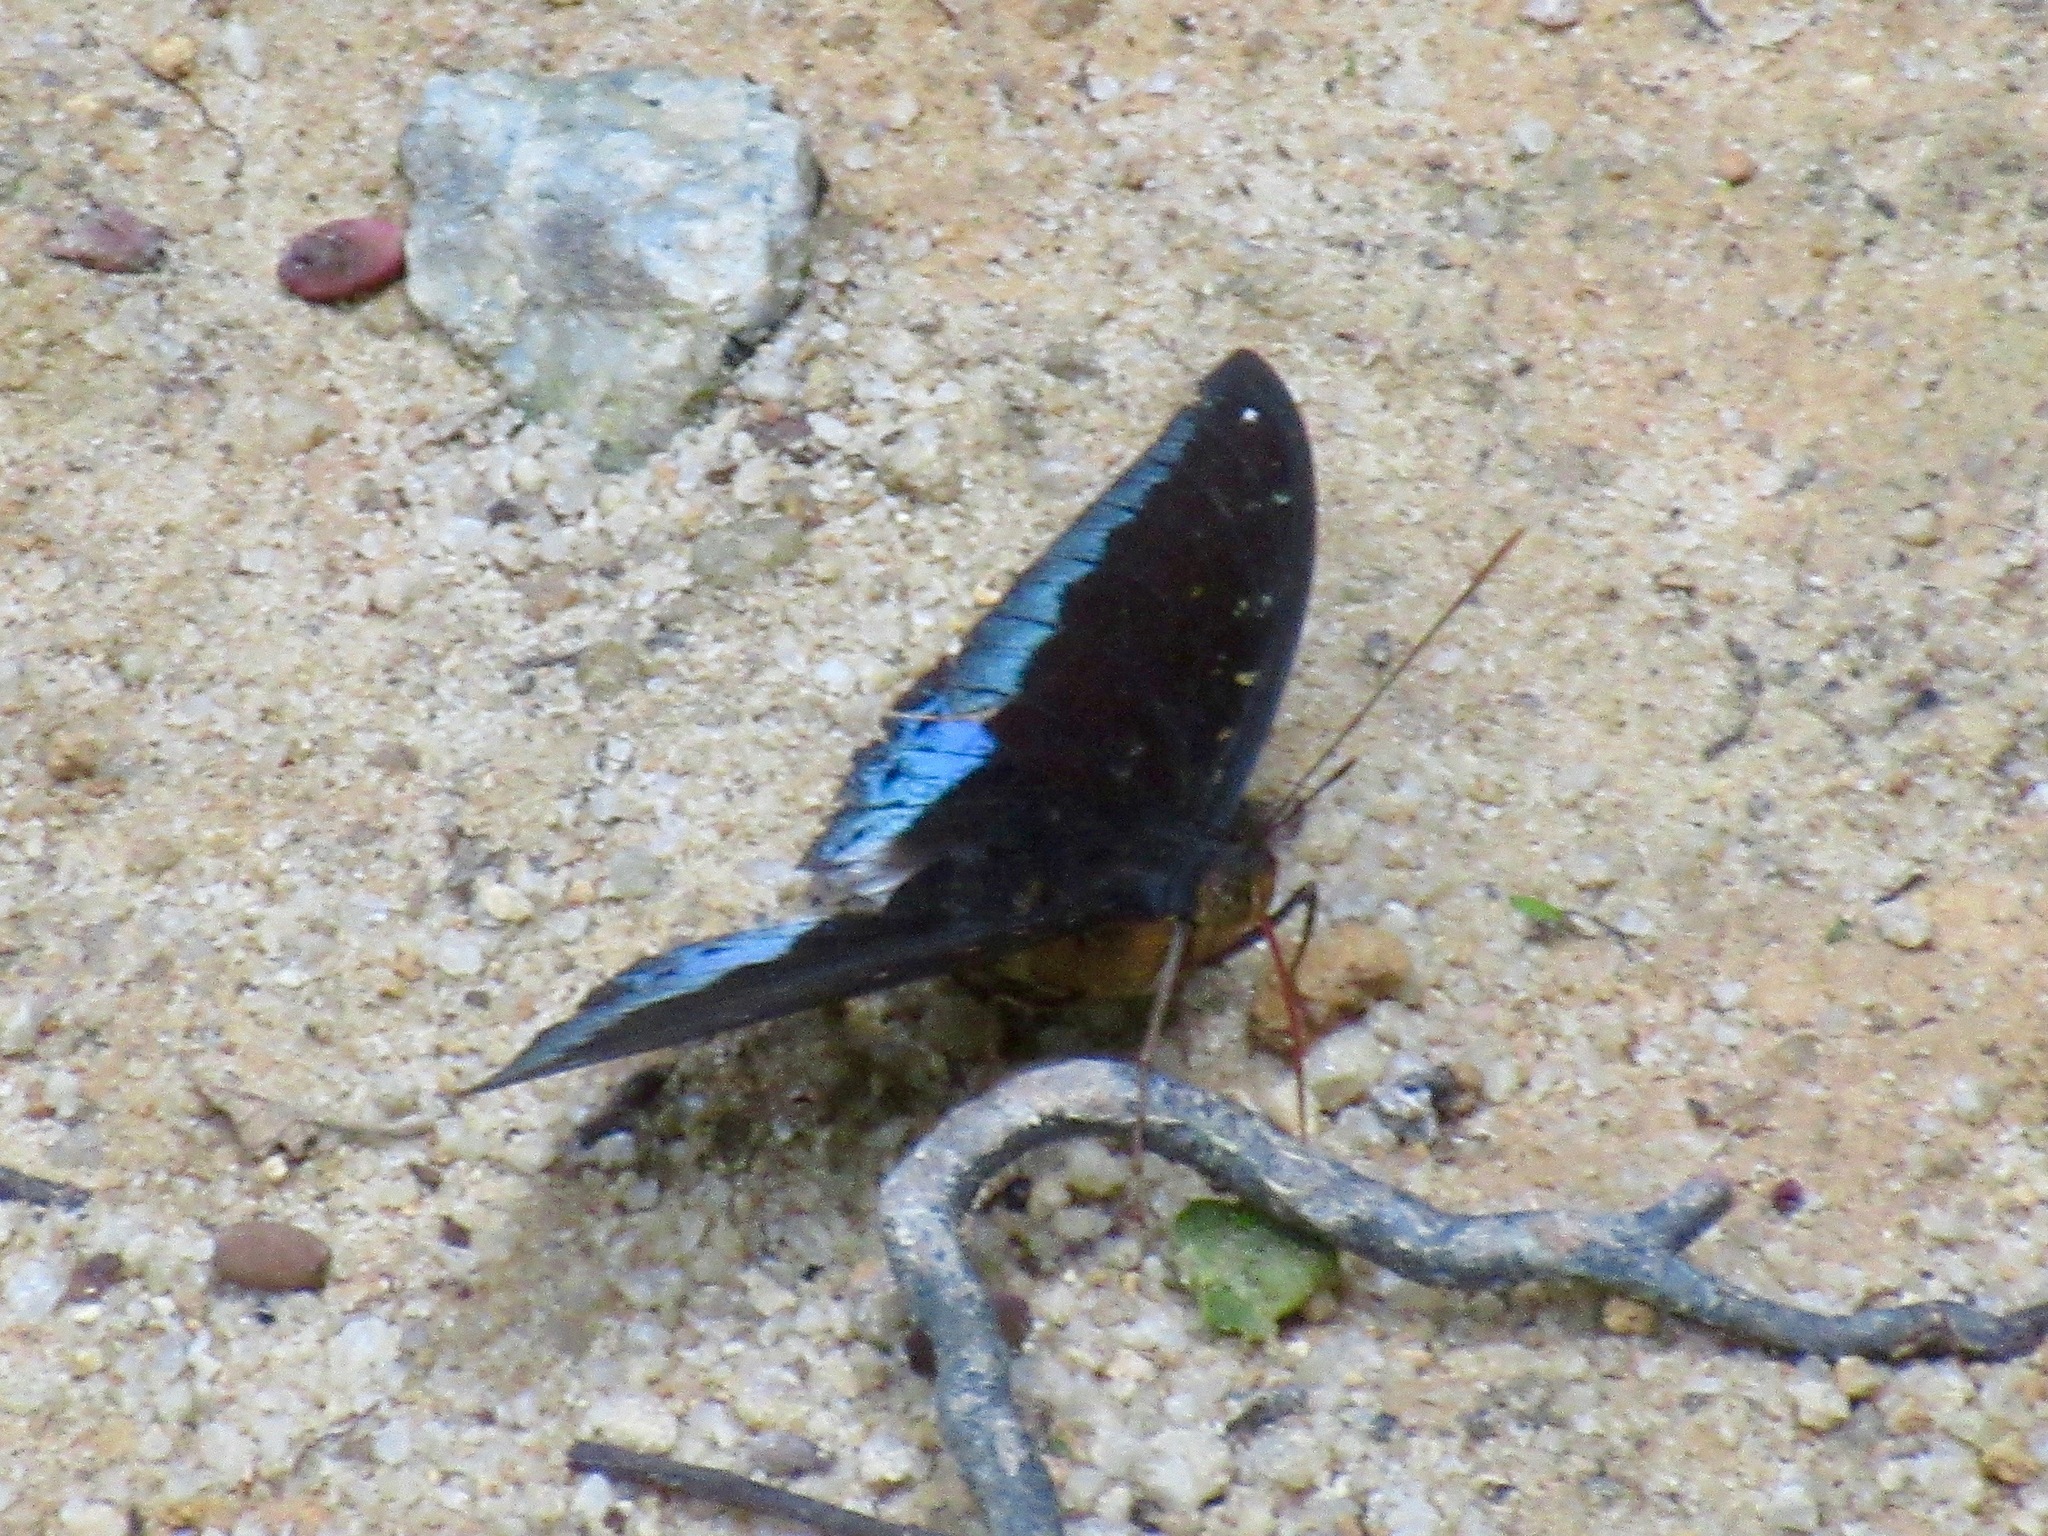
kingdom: Animalia
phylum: Arthropoda
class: Insecta
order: Lepidoptera
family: Nymphalidae
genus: Lexias
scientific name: Lexias pardalis
